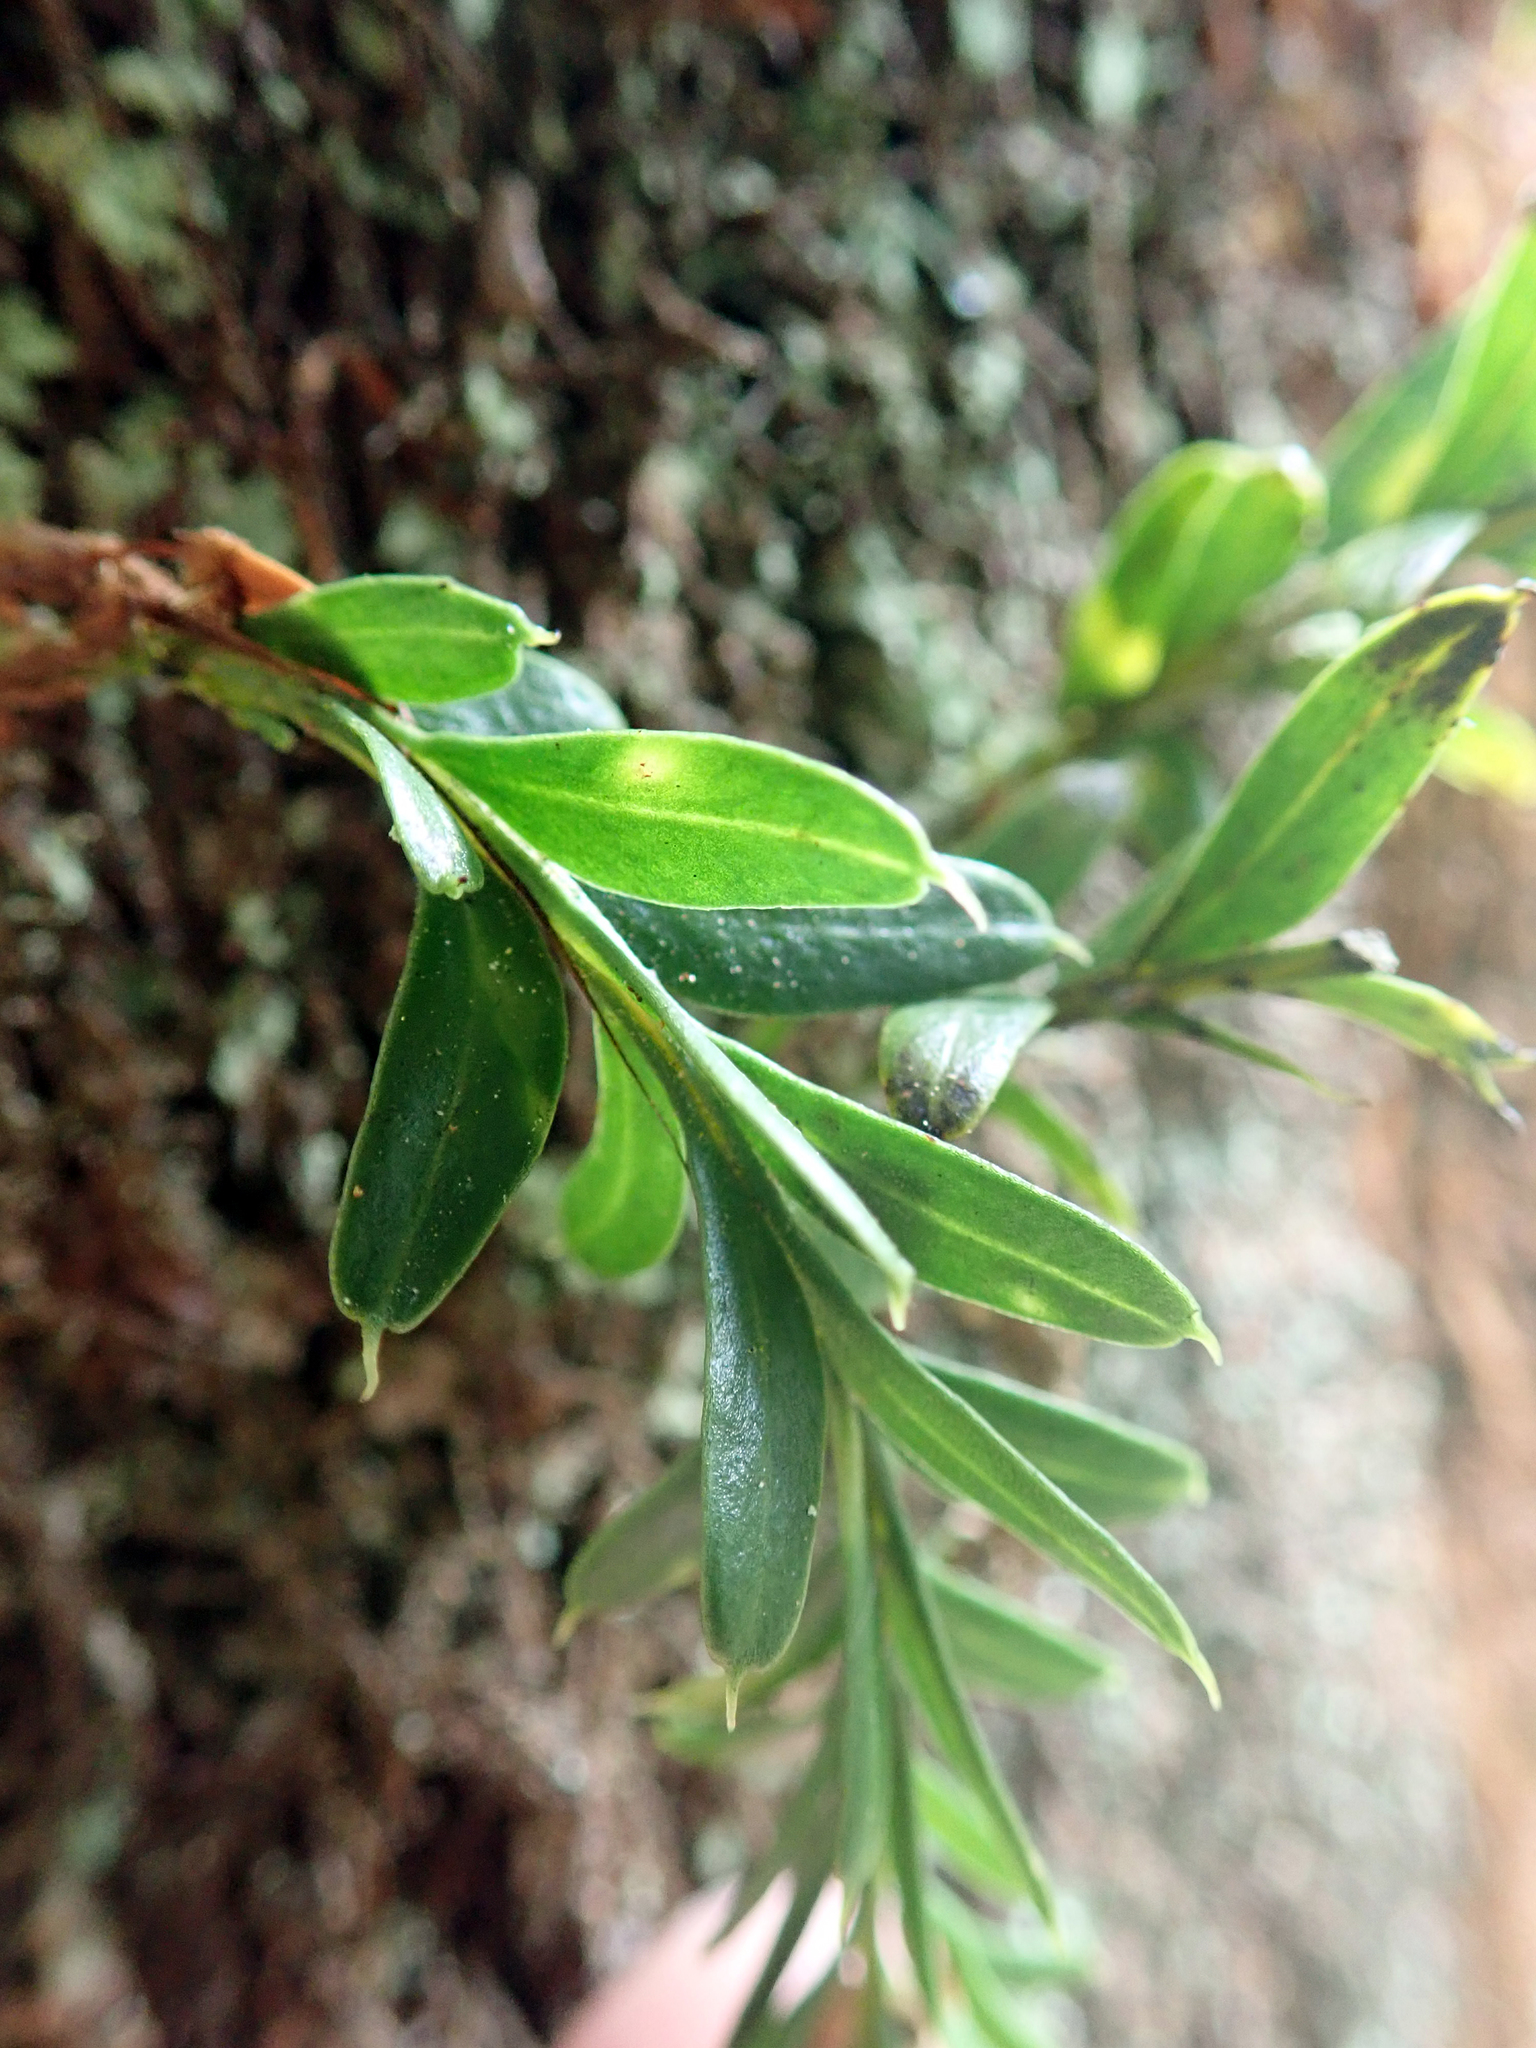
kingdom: Plantae
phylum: Tracheophyta
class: Polypodiopsida
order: Psilotales
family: Psilotaceae
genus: Tmesipteris
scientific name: Tmesipteris tannensis
